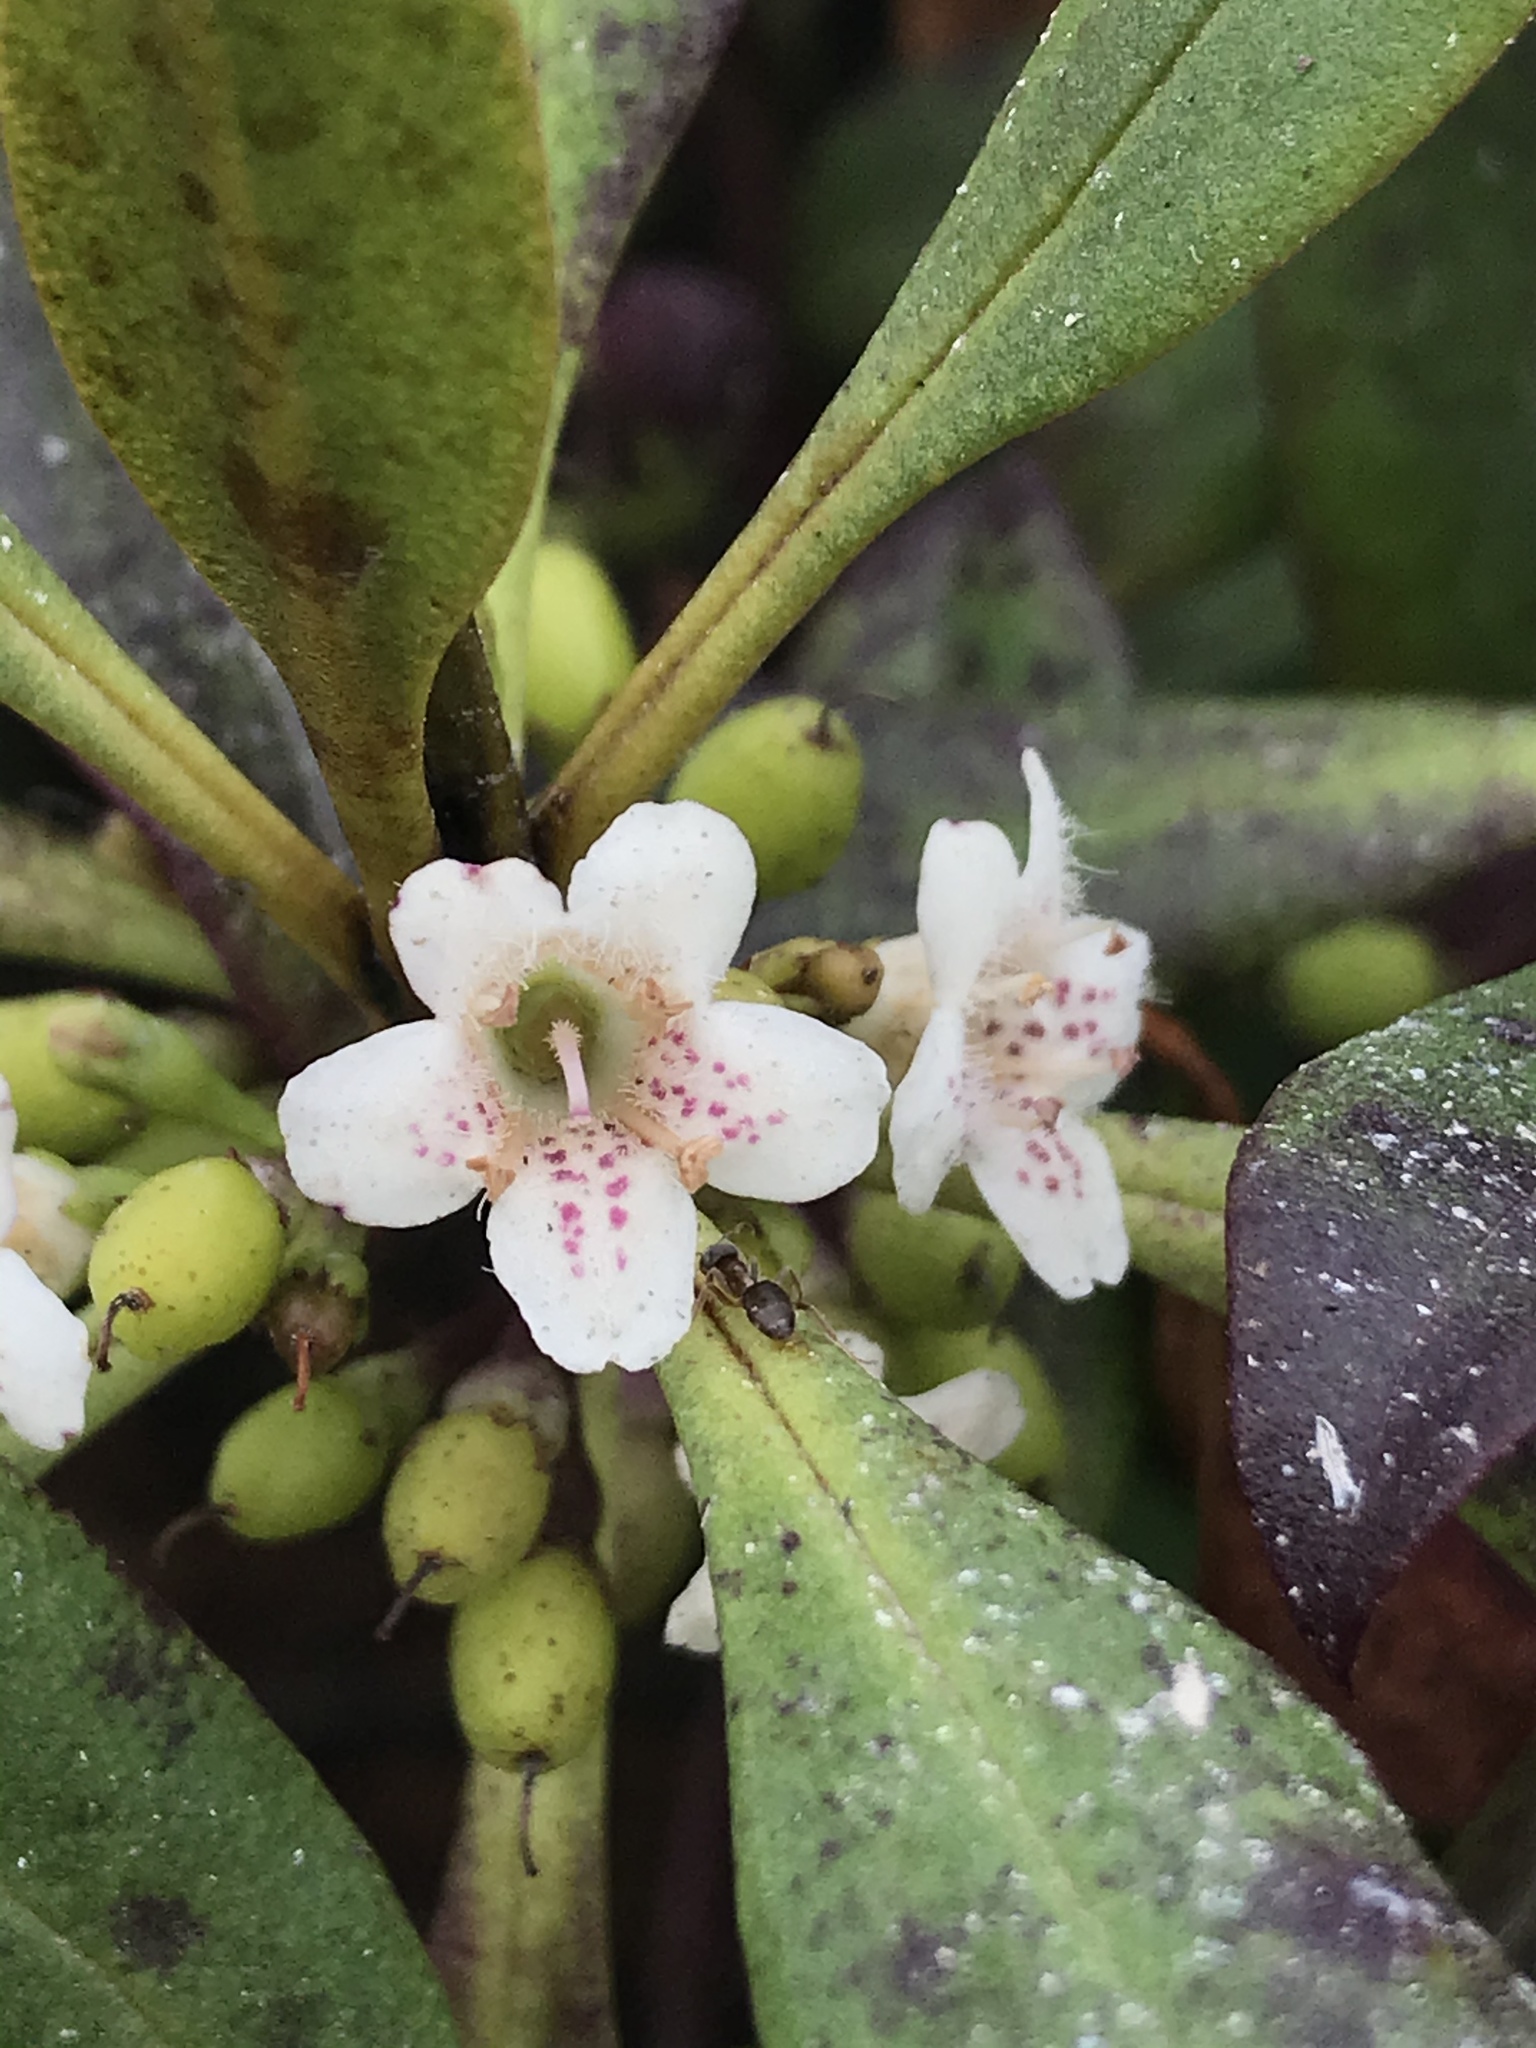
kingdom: Plantae
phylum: Tracheophyta
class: Magnoliopsida
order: Lamiales
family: Scrophulariaceae
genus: Myoporum
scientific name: Myoporum laetum
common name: Ngaio tree
